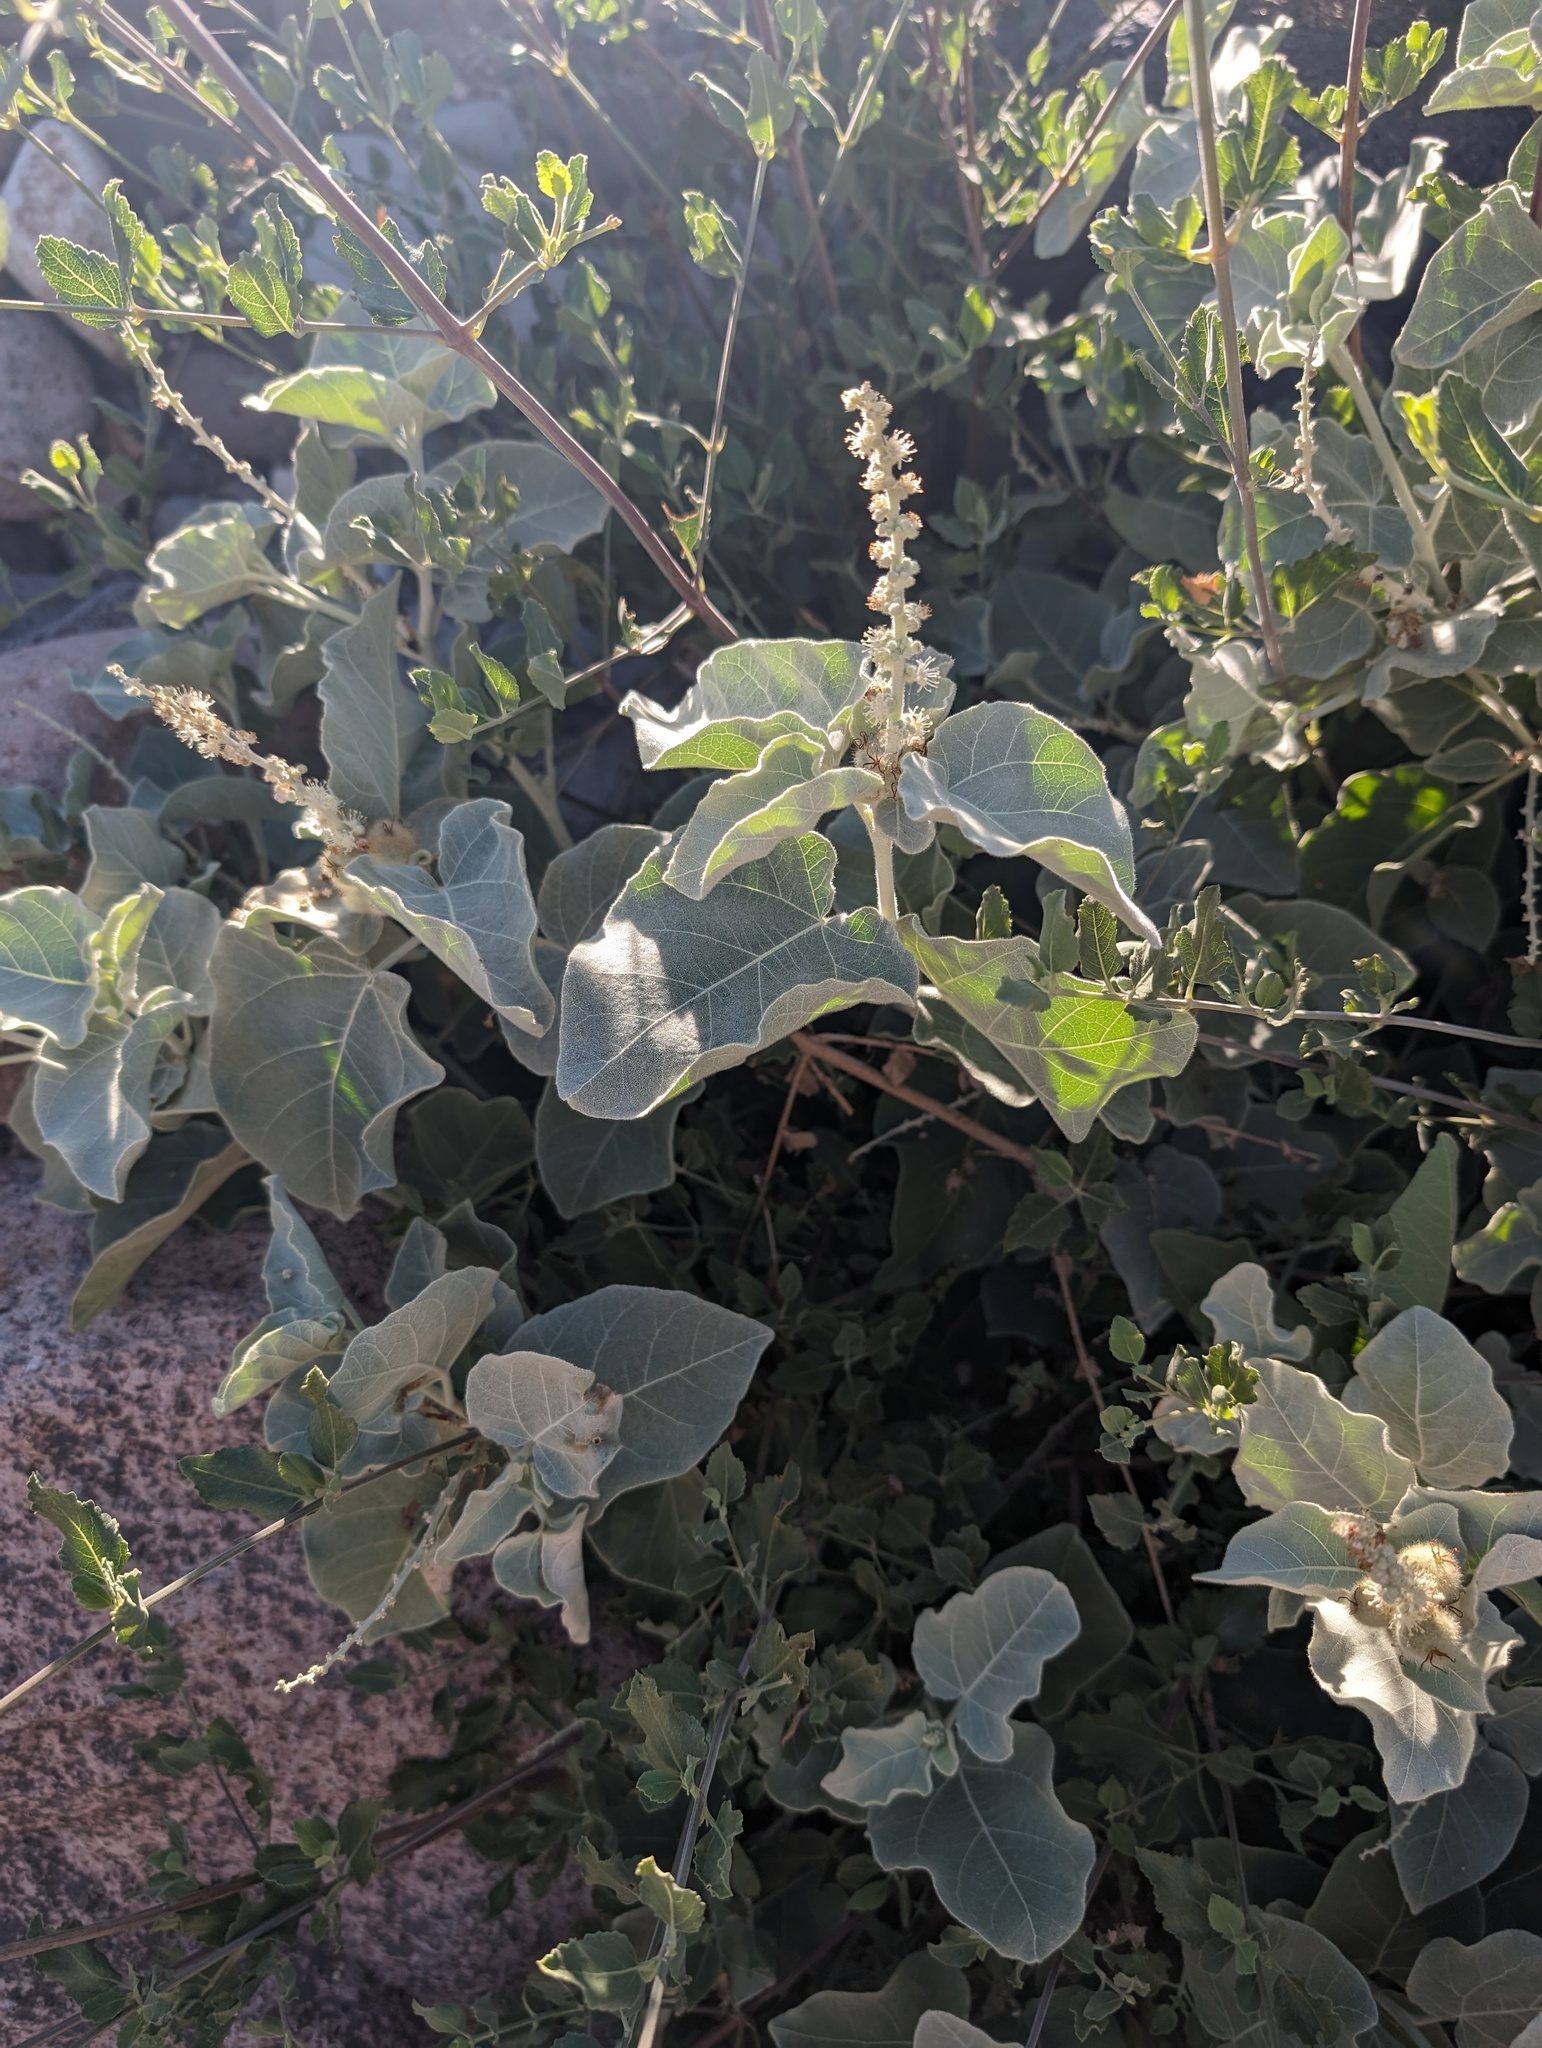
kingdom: Plantae
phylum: Tracheophyta
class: Magnoliopsida
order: Malpighiales
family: Euphorbiaceae
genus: Croton
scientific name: Croton magdalenae
